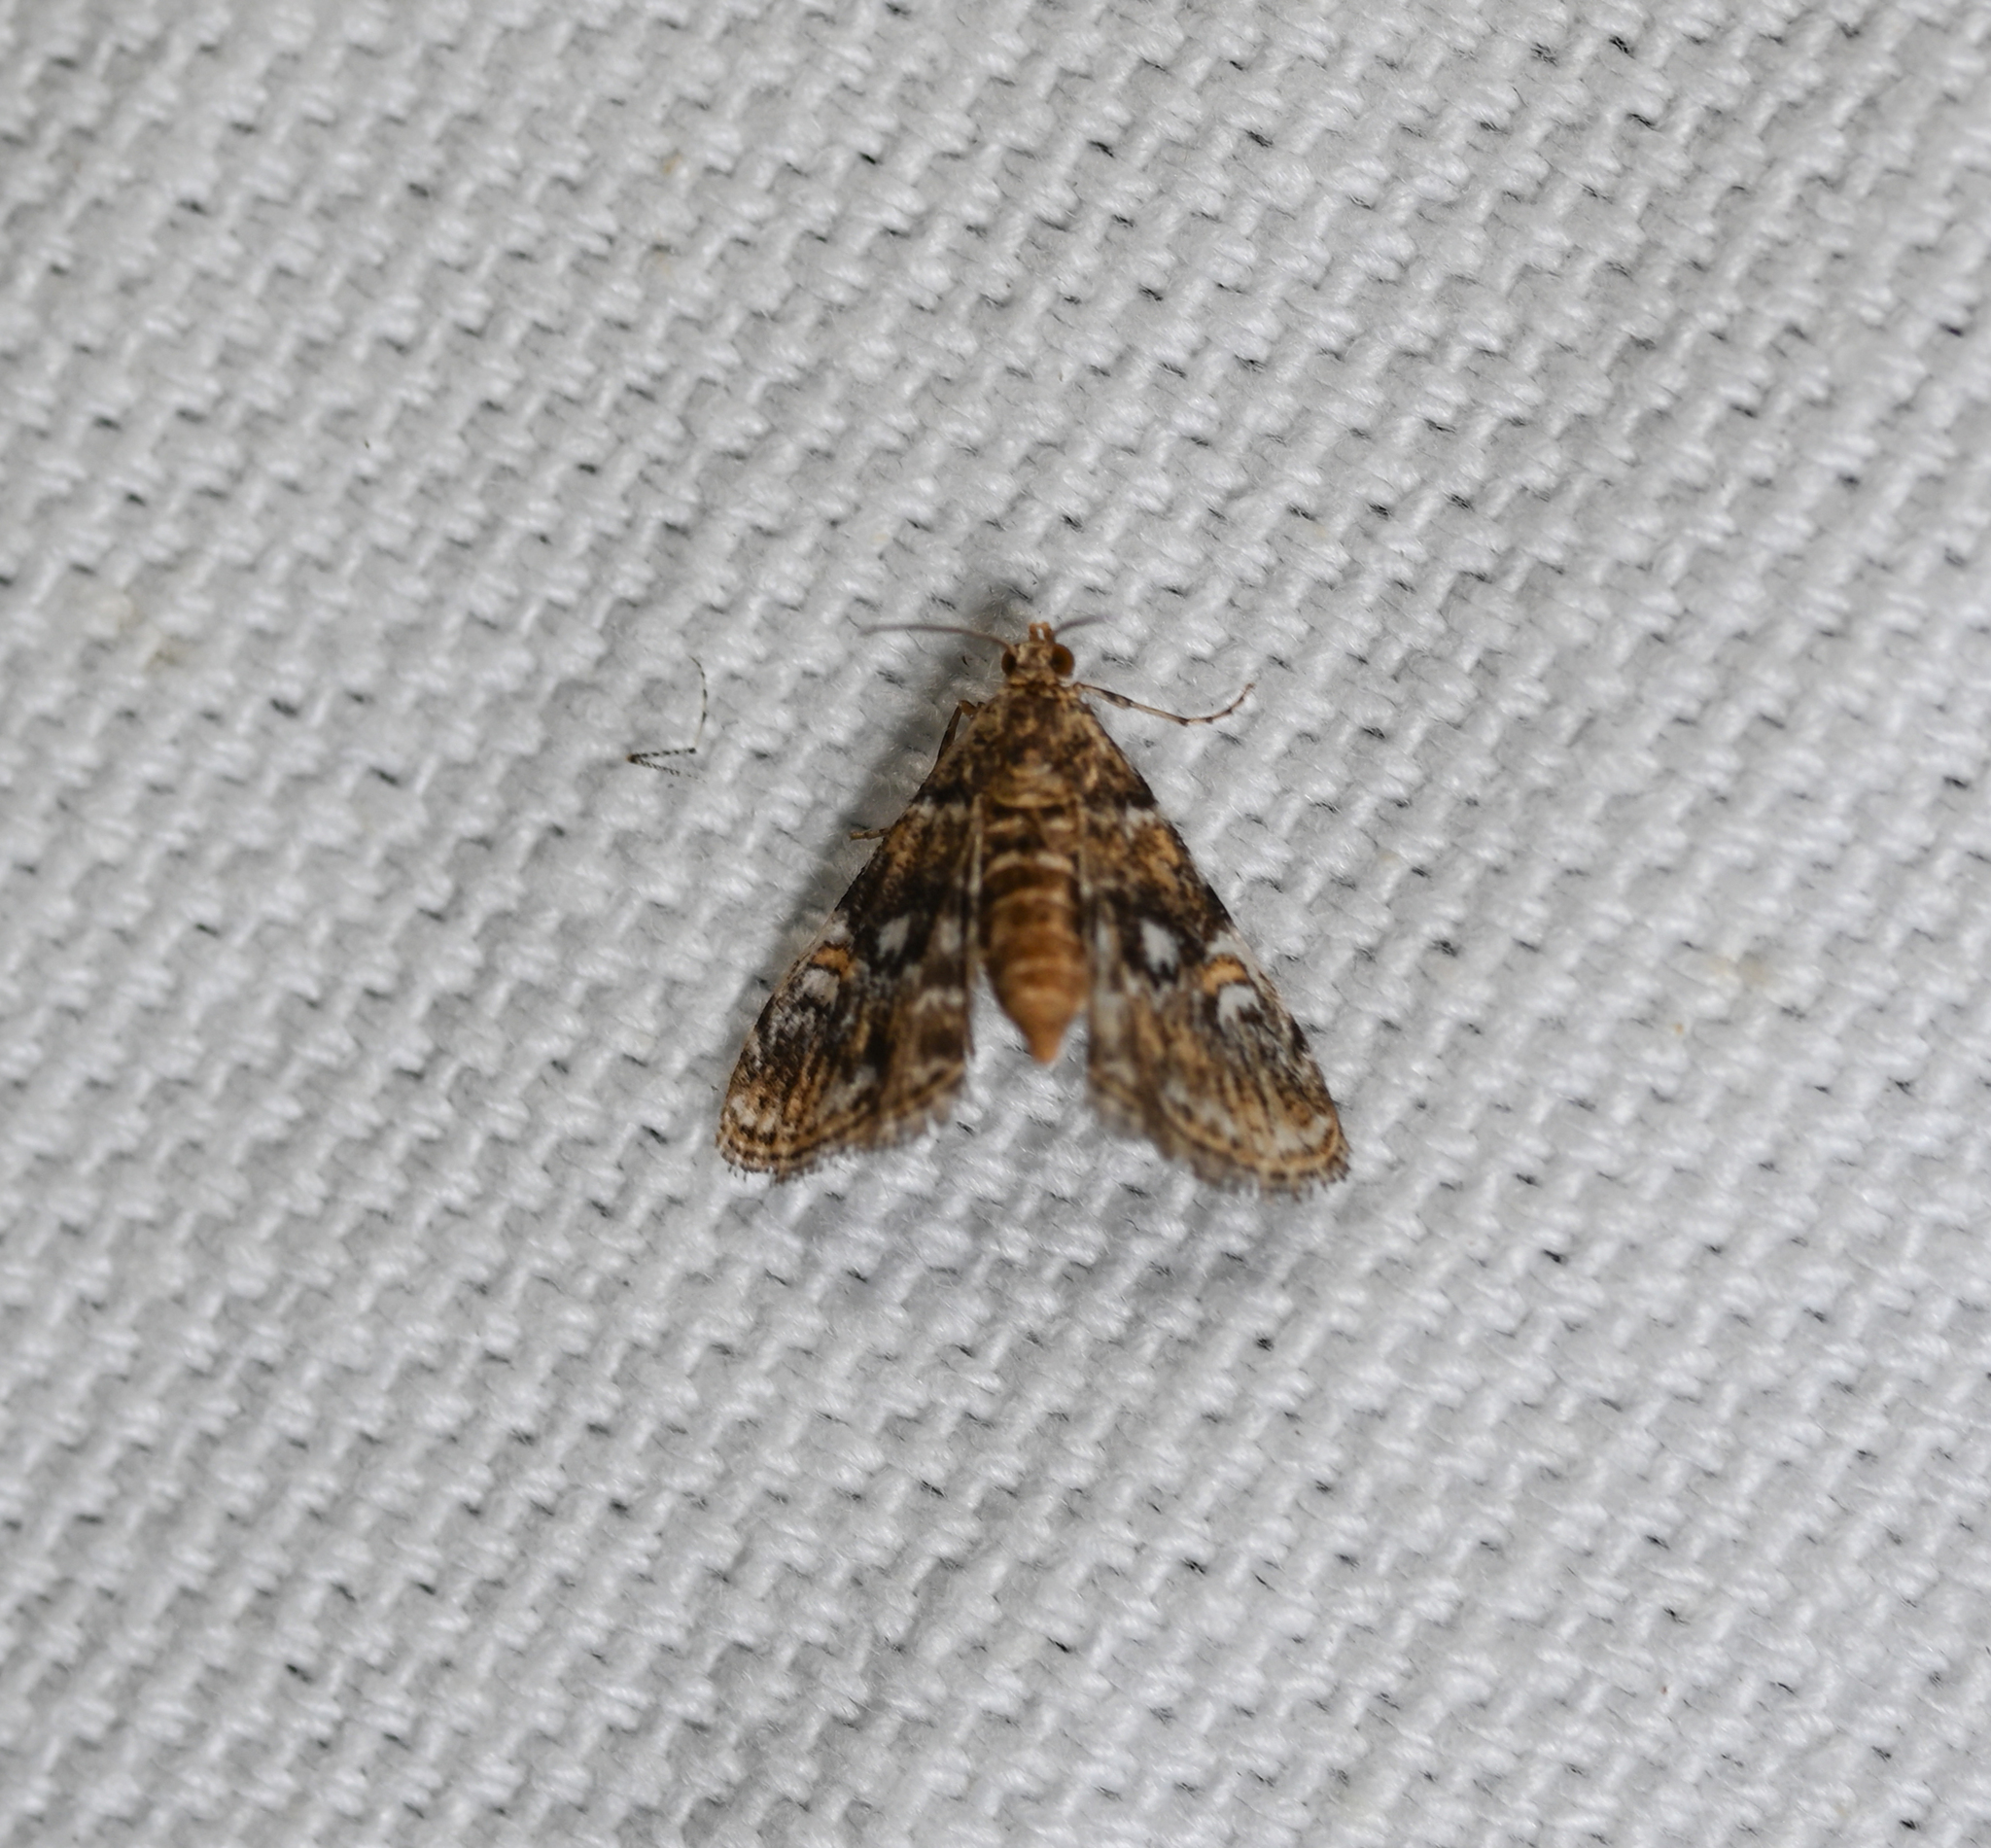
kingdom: Animalia
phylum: Arthropoda
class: Insecta
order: Lepidoptera
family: Crambidae
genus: Elophila
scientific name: Elophila obliteralis
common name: Waterlily leafcutter moth
